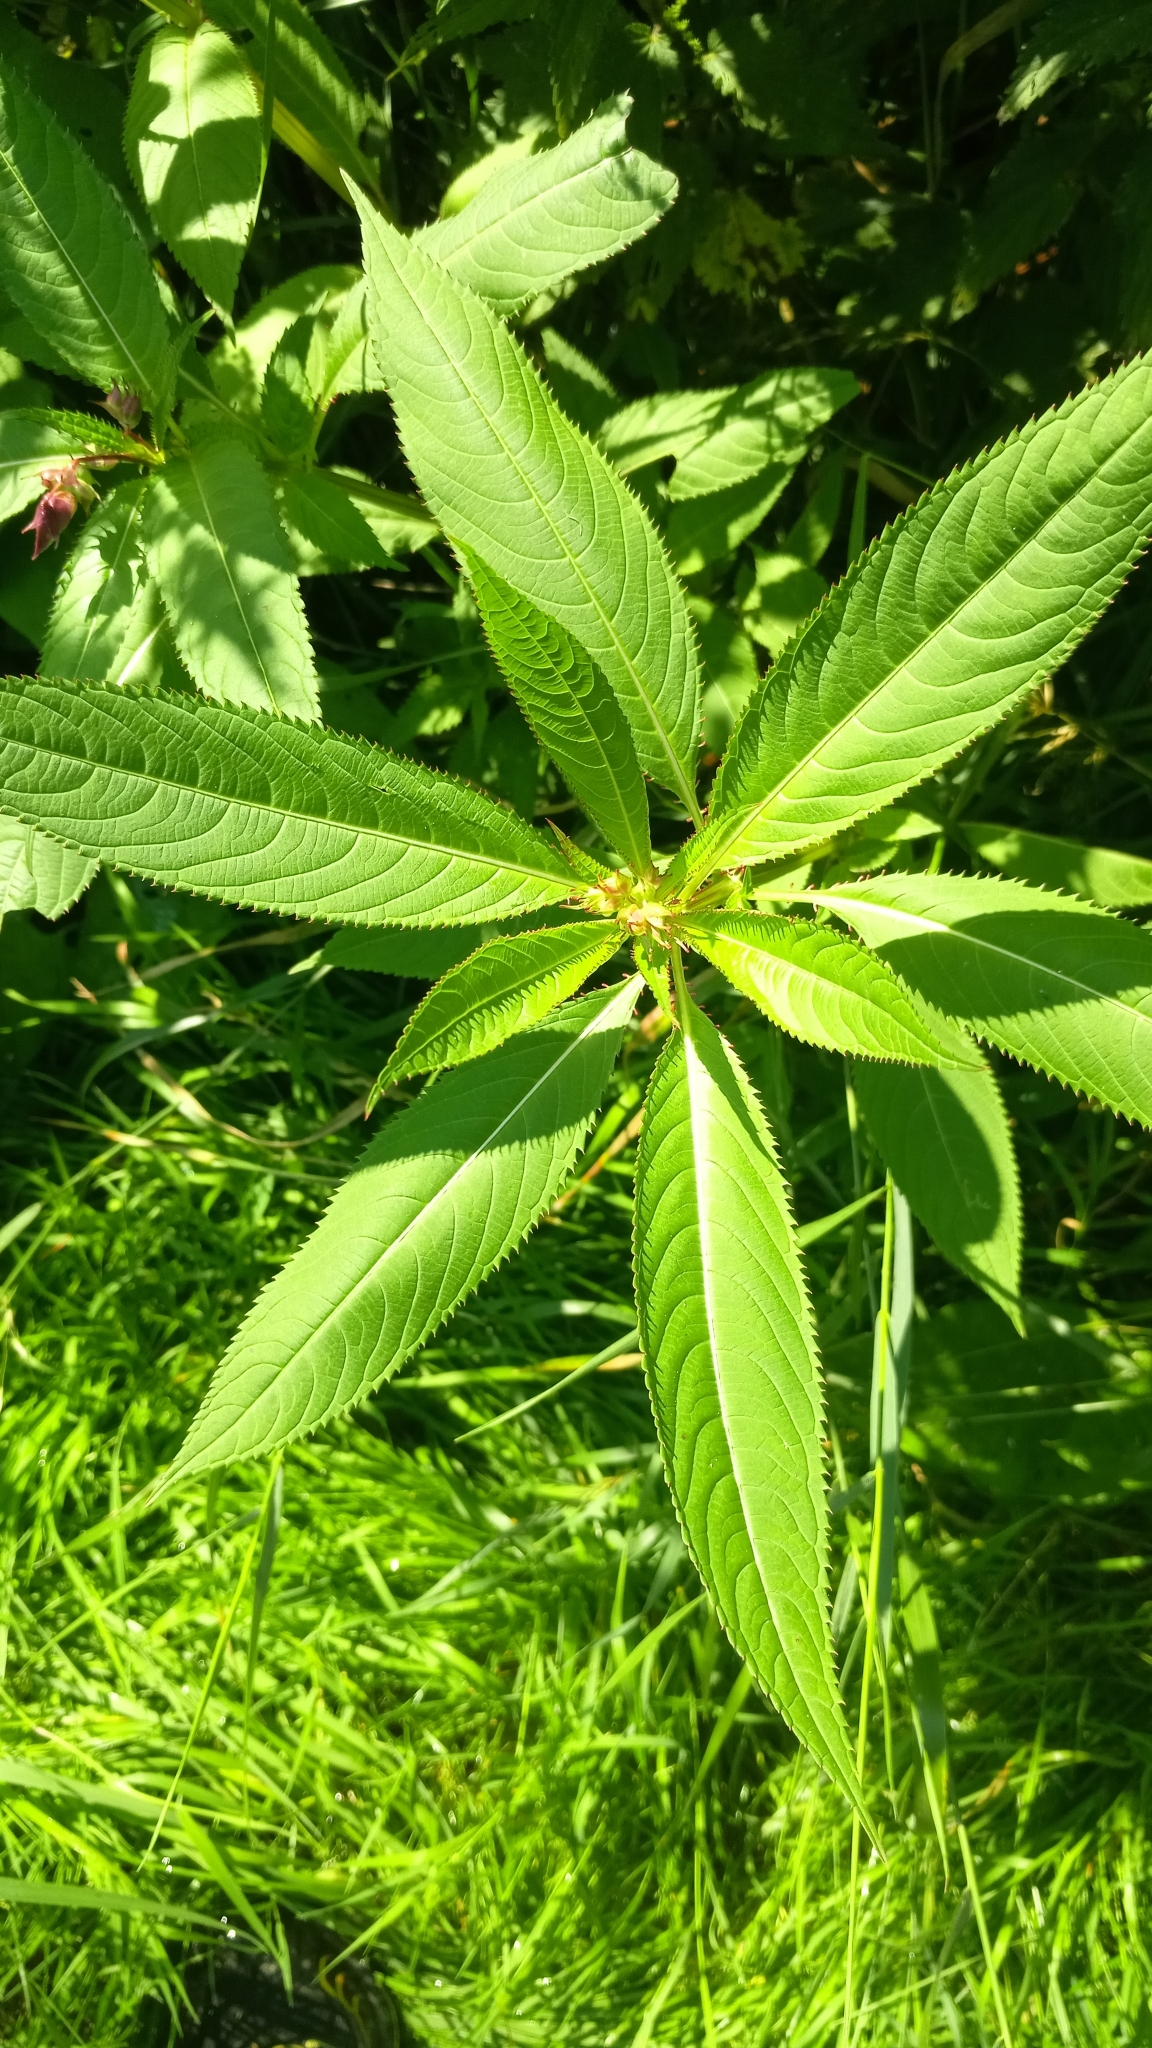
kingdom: Plantae
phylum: Tracheophyta
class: Magnoliopsida
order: Ericales
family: Balsaminaceae
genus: Impatiens
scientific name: Impatiens glandulifera
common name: Himalayan balsam
